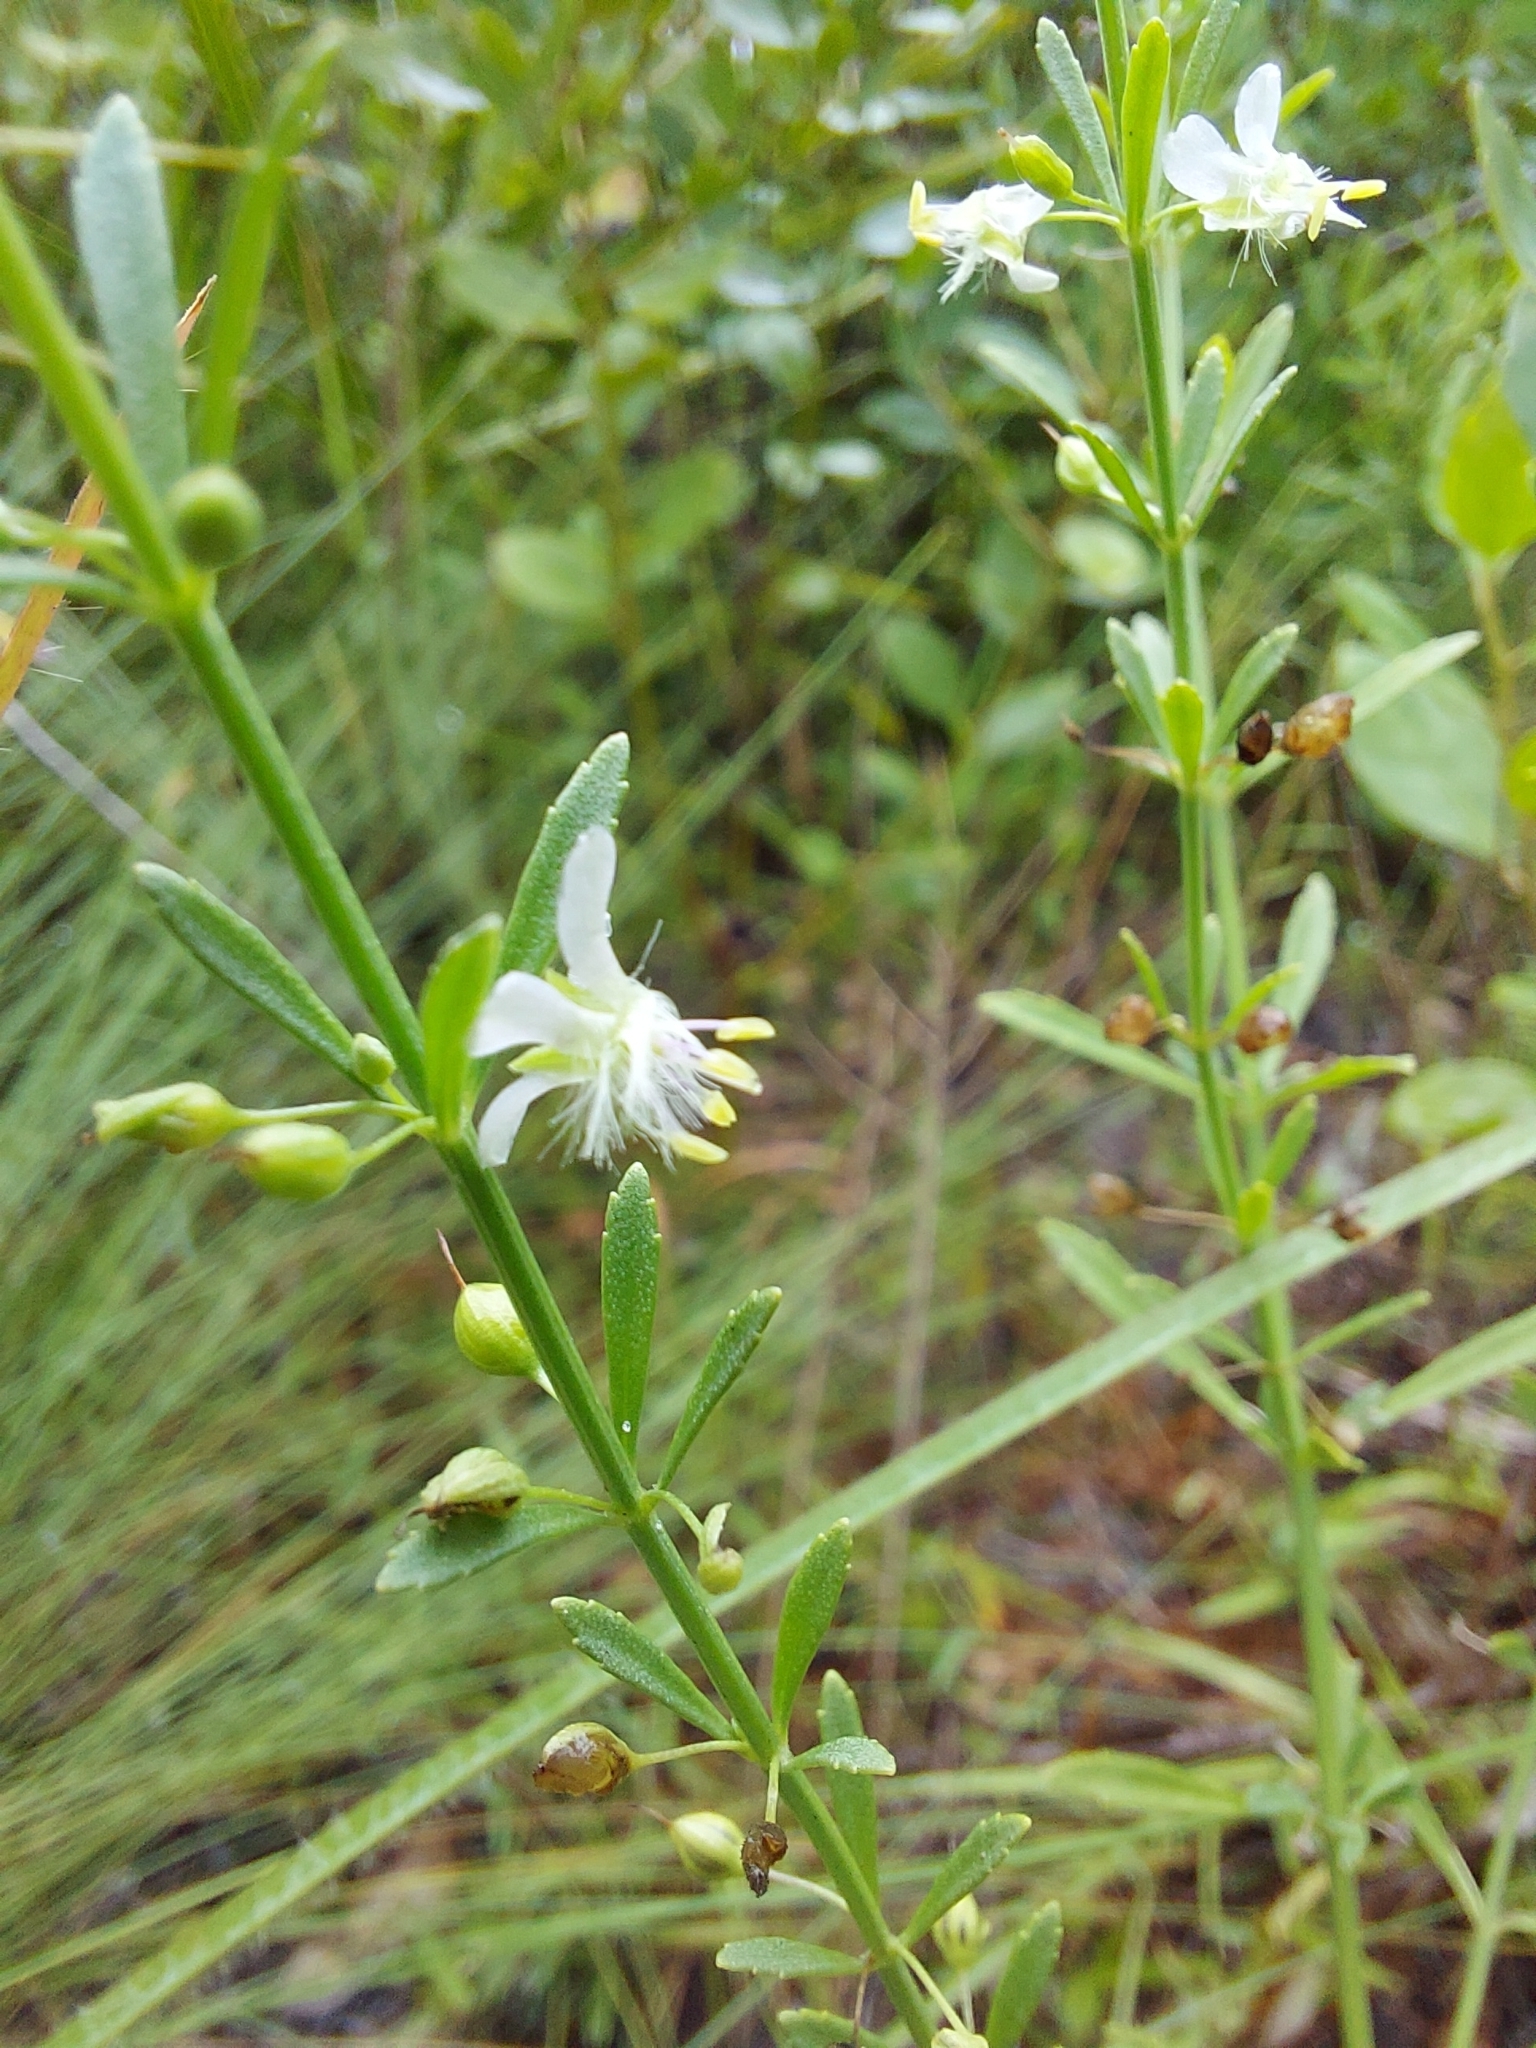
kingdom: Plantae
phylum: Tracheophyta
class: Magnoliopsida
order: Lamiales
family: Plantaginaceae
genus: Scoparia
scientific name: Scoparia dulcis
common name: Scoparia-weed
